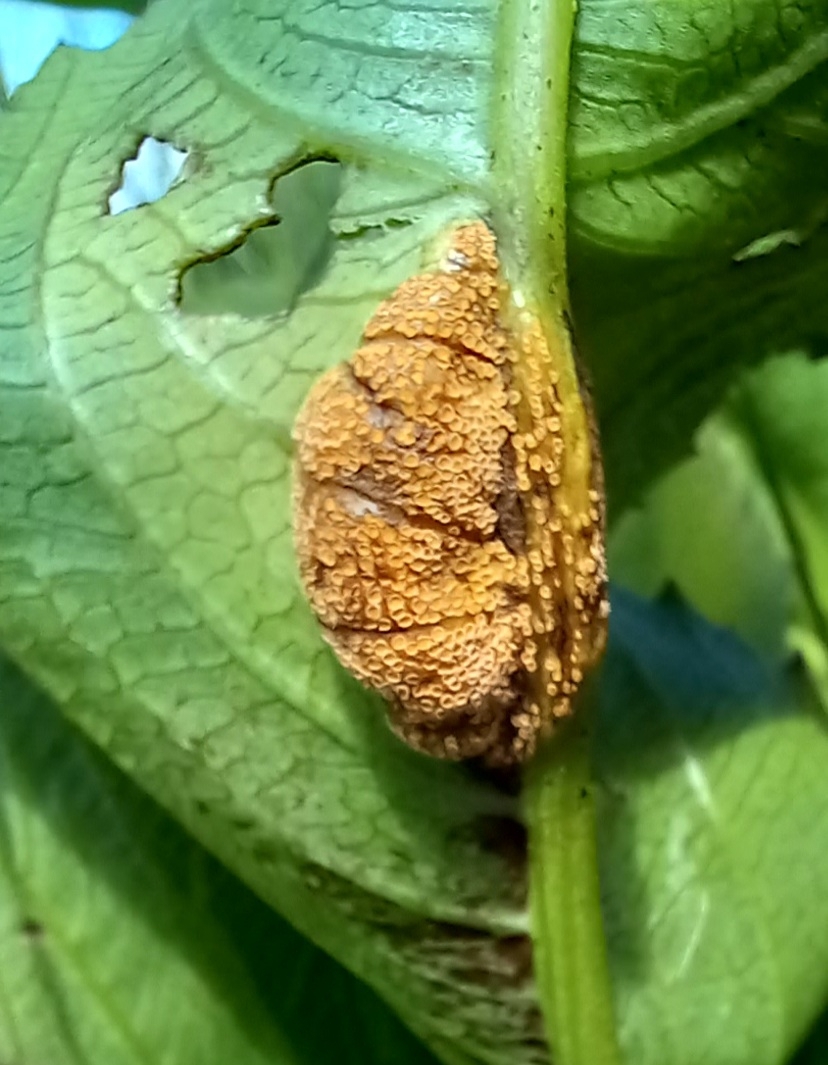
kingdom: Plantae
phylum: Tracheophyta
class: Magnoliopsida
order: Vitales
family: Vitaceae
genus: Cyphostemma
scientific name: Cyphostemma rhodesiae
